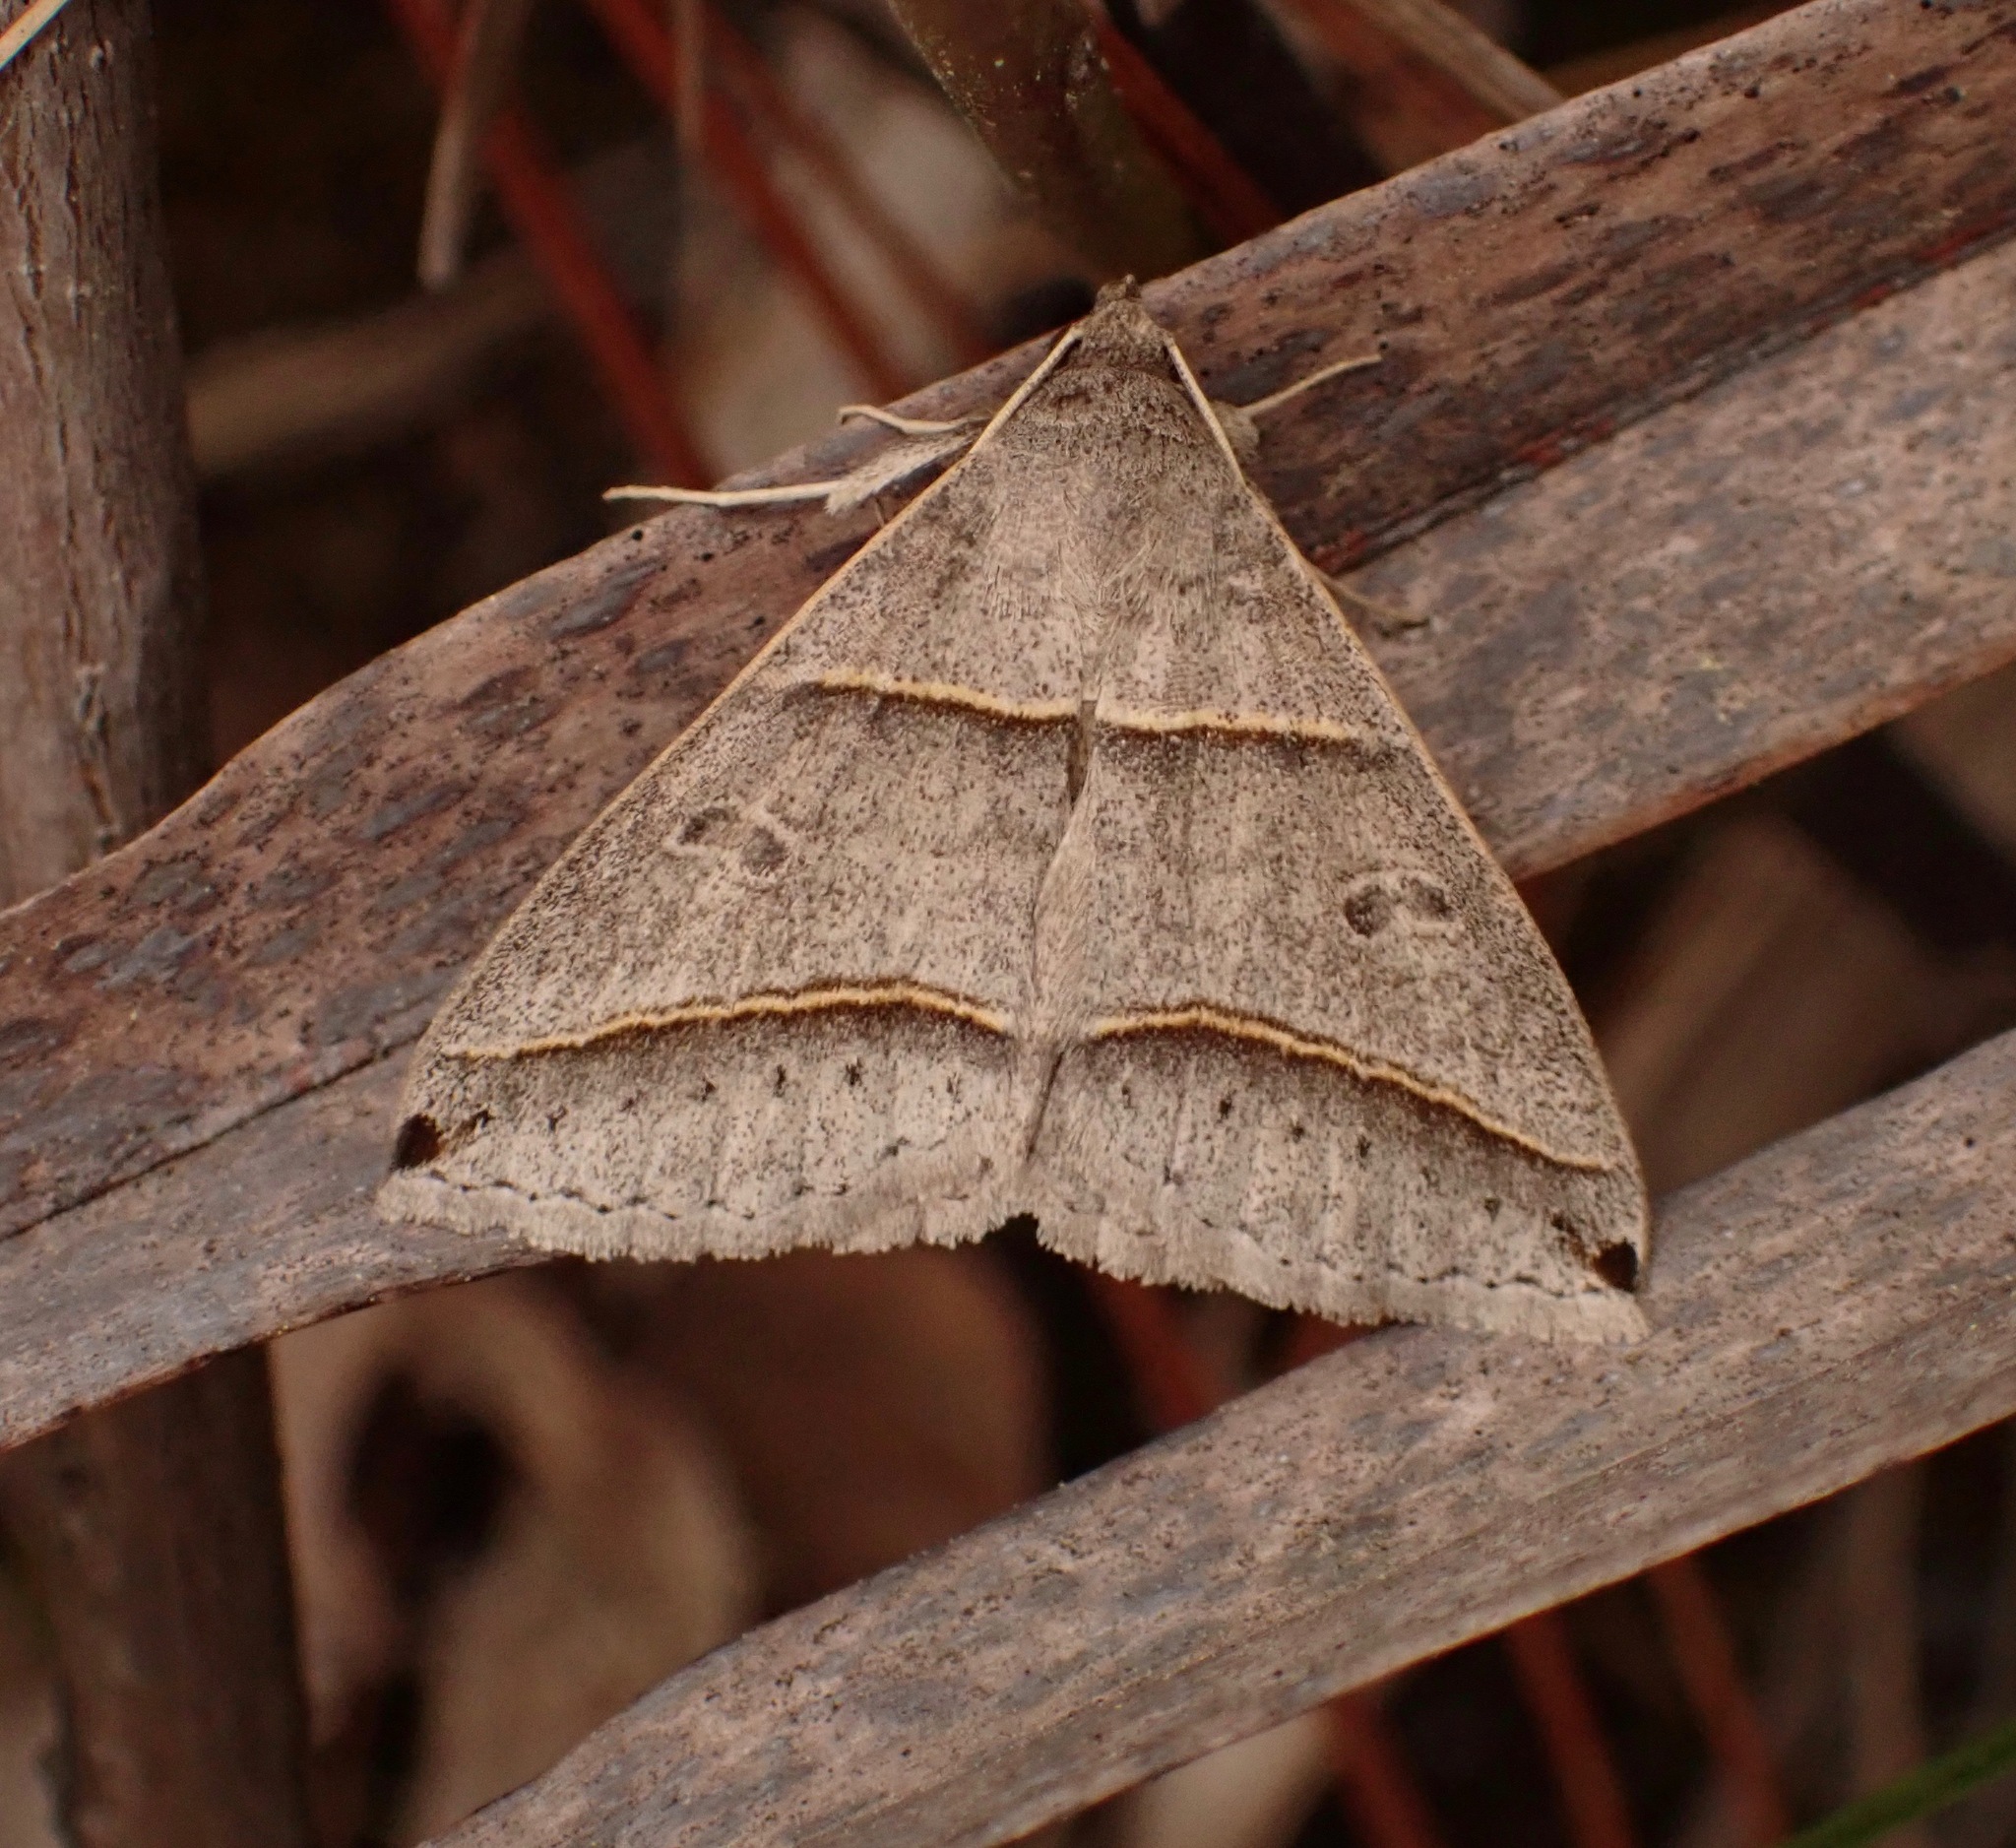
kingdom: Animalia
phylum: Arthropoda
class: Insecta
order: Lepidoptera
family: Erebidae
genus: Ptichodis
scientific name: Ptichodis vinculum
